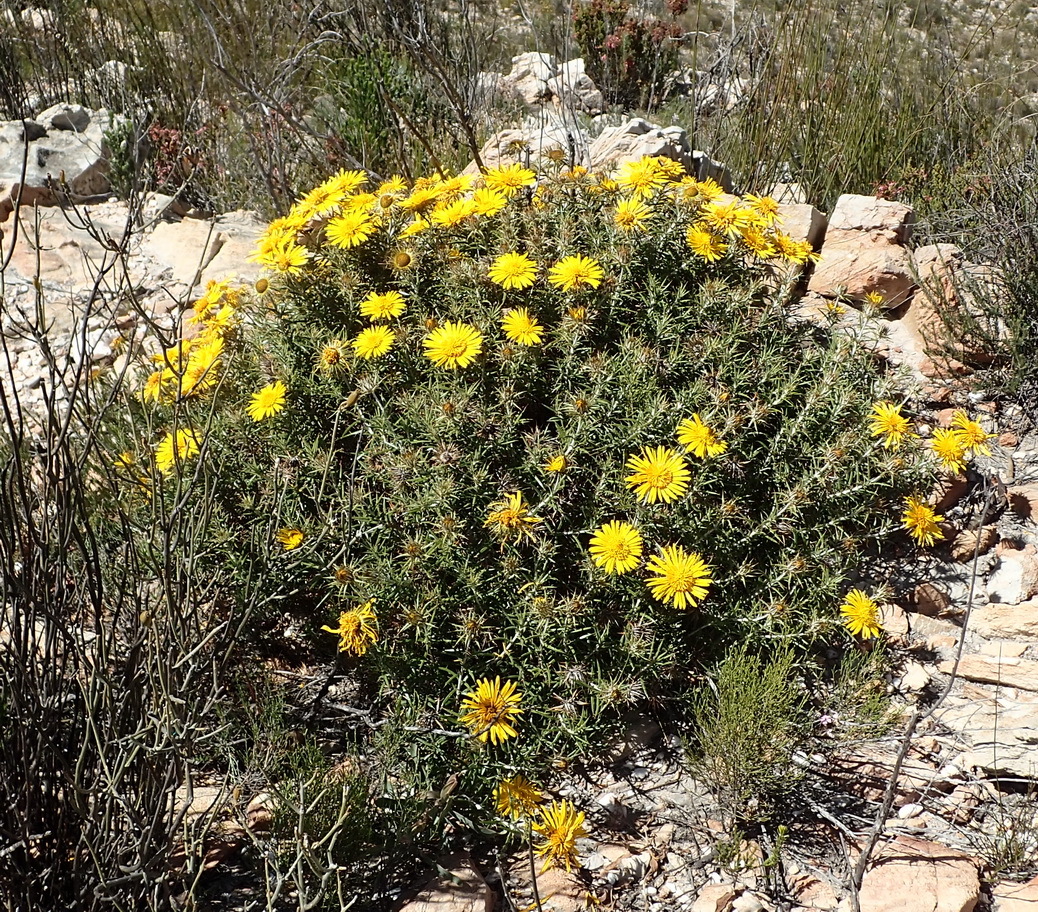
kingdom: Plantae
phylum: Tracheophyta
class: Magnoliopsida
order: Asterales
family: Asteraceae
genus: Berkheya
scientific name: Berkheya angustifolia
